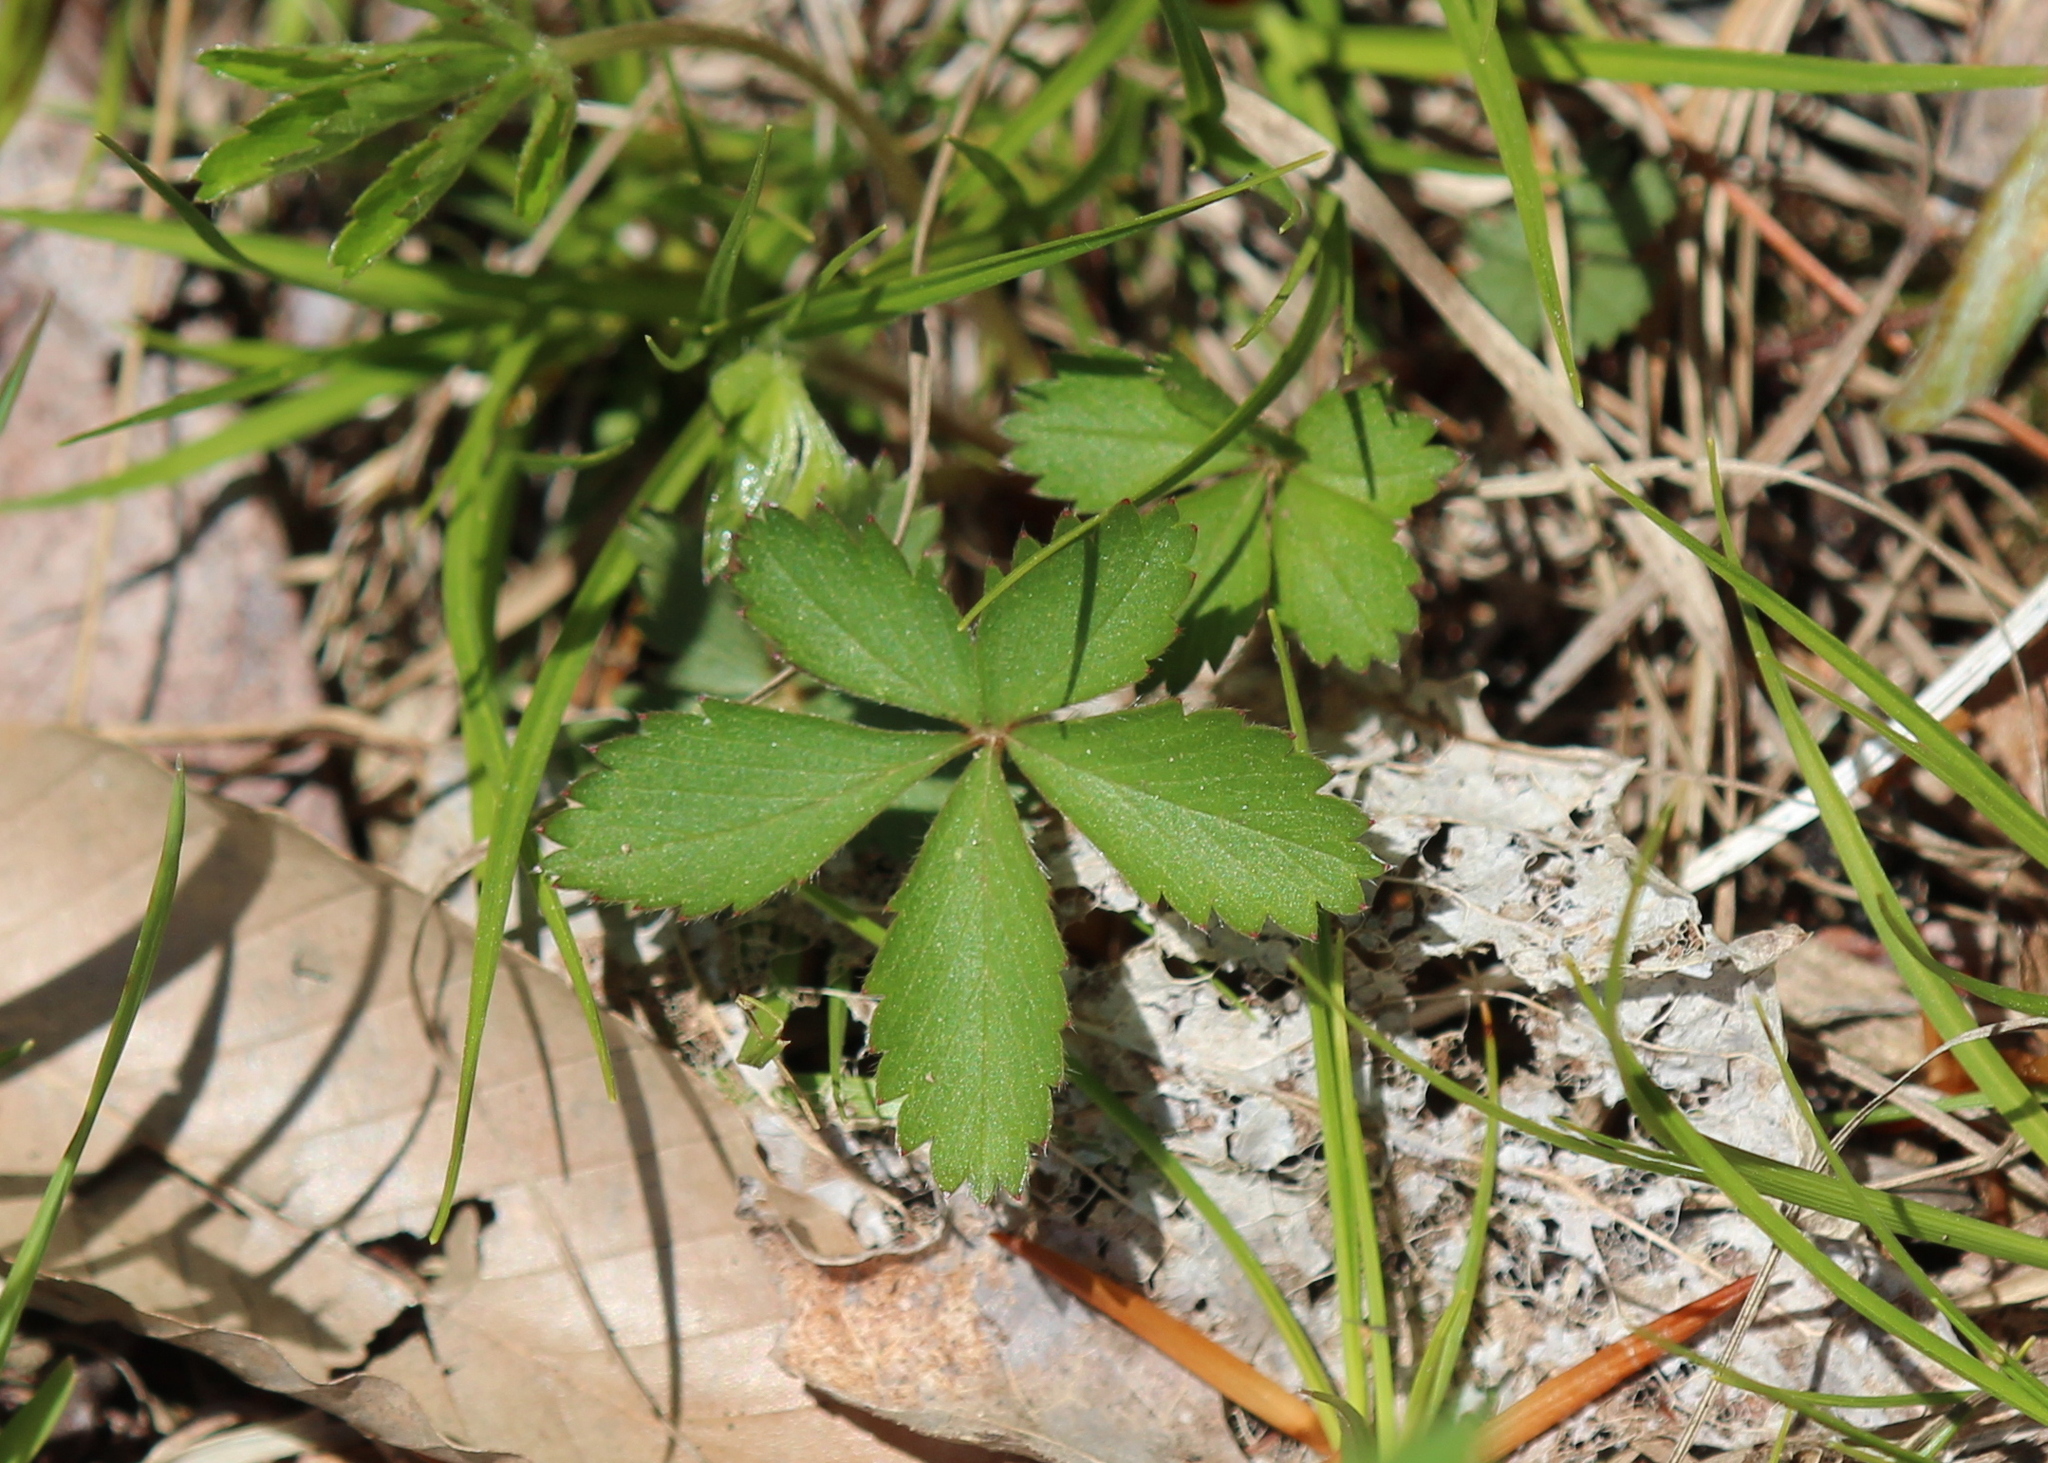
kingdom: Plantae
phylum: Tracheophyta
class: Magnoliopsida
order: Rosales
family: Rosaceae
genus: Potentilla
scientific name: Potentilla simplex
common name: Old field cinquefoil
